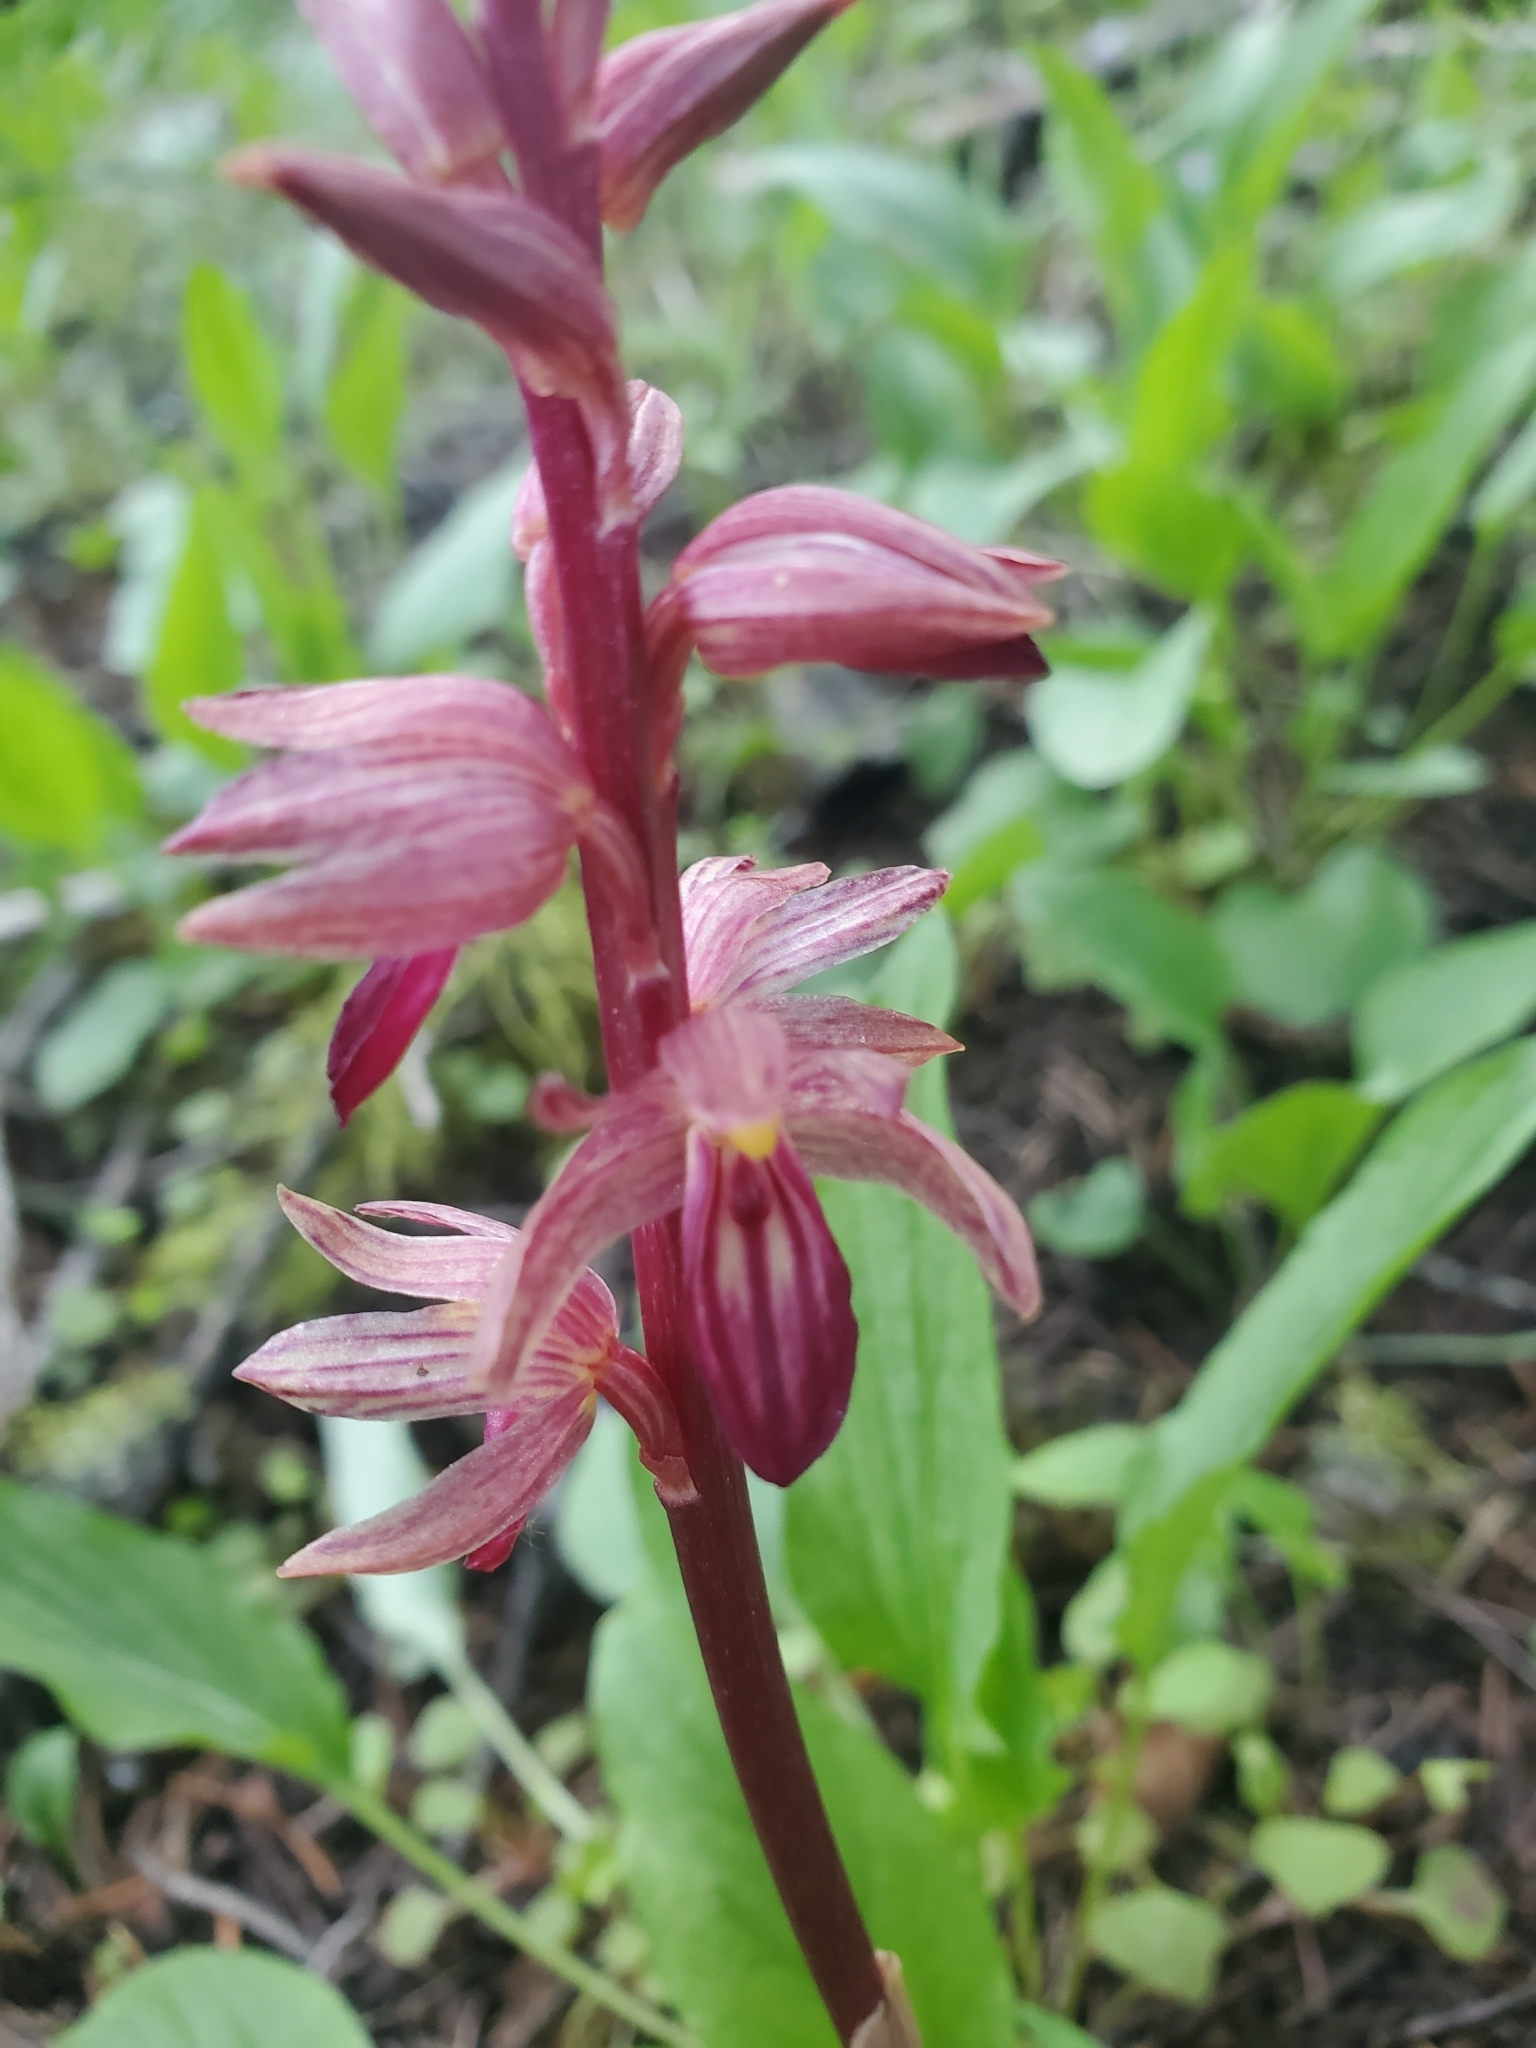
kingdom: Plantae
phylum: Tracheophyta
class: Liliopsida
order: Asparagales
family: Orchidaceae
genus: Corallorhiza
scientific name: Corallorhiza striata
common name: Hooded coralroot
